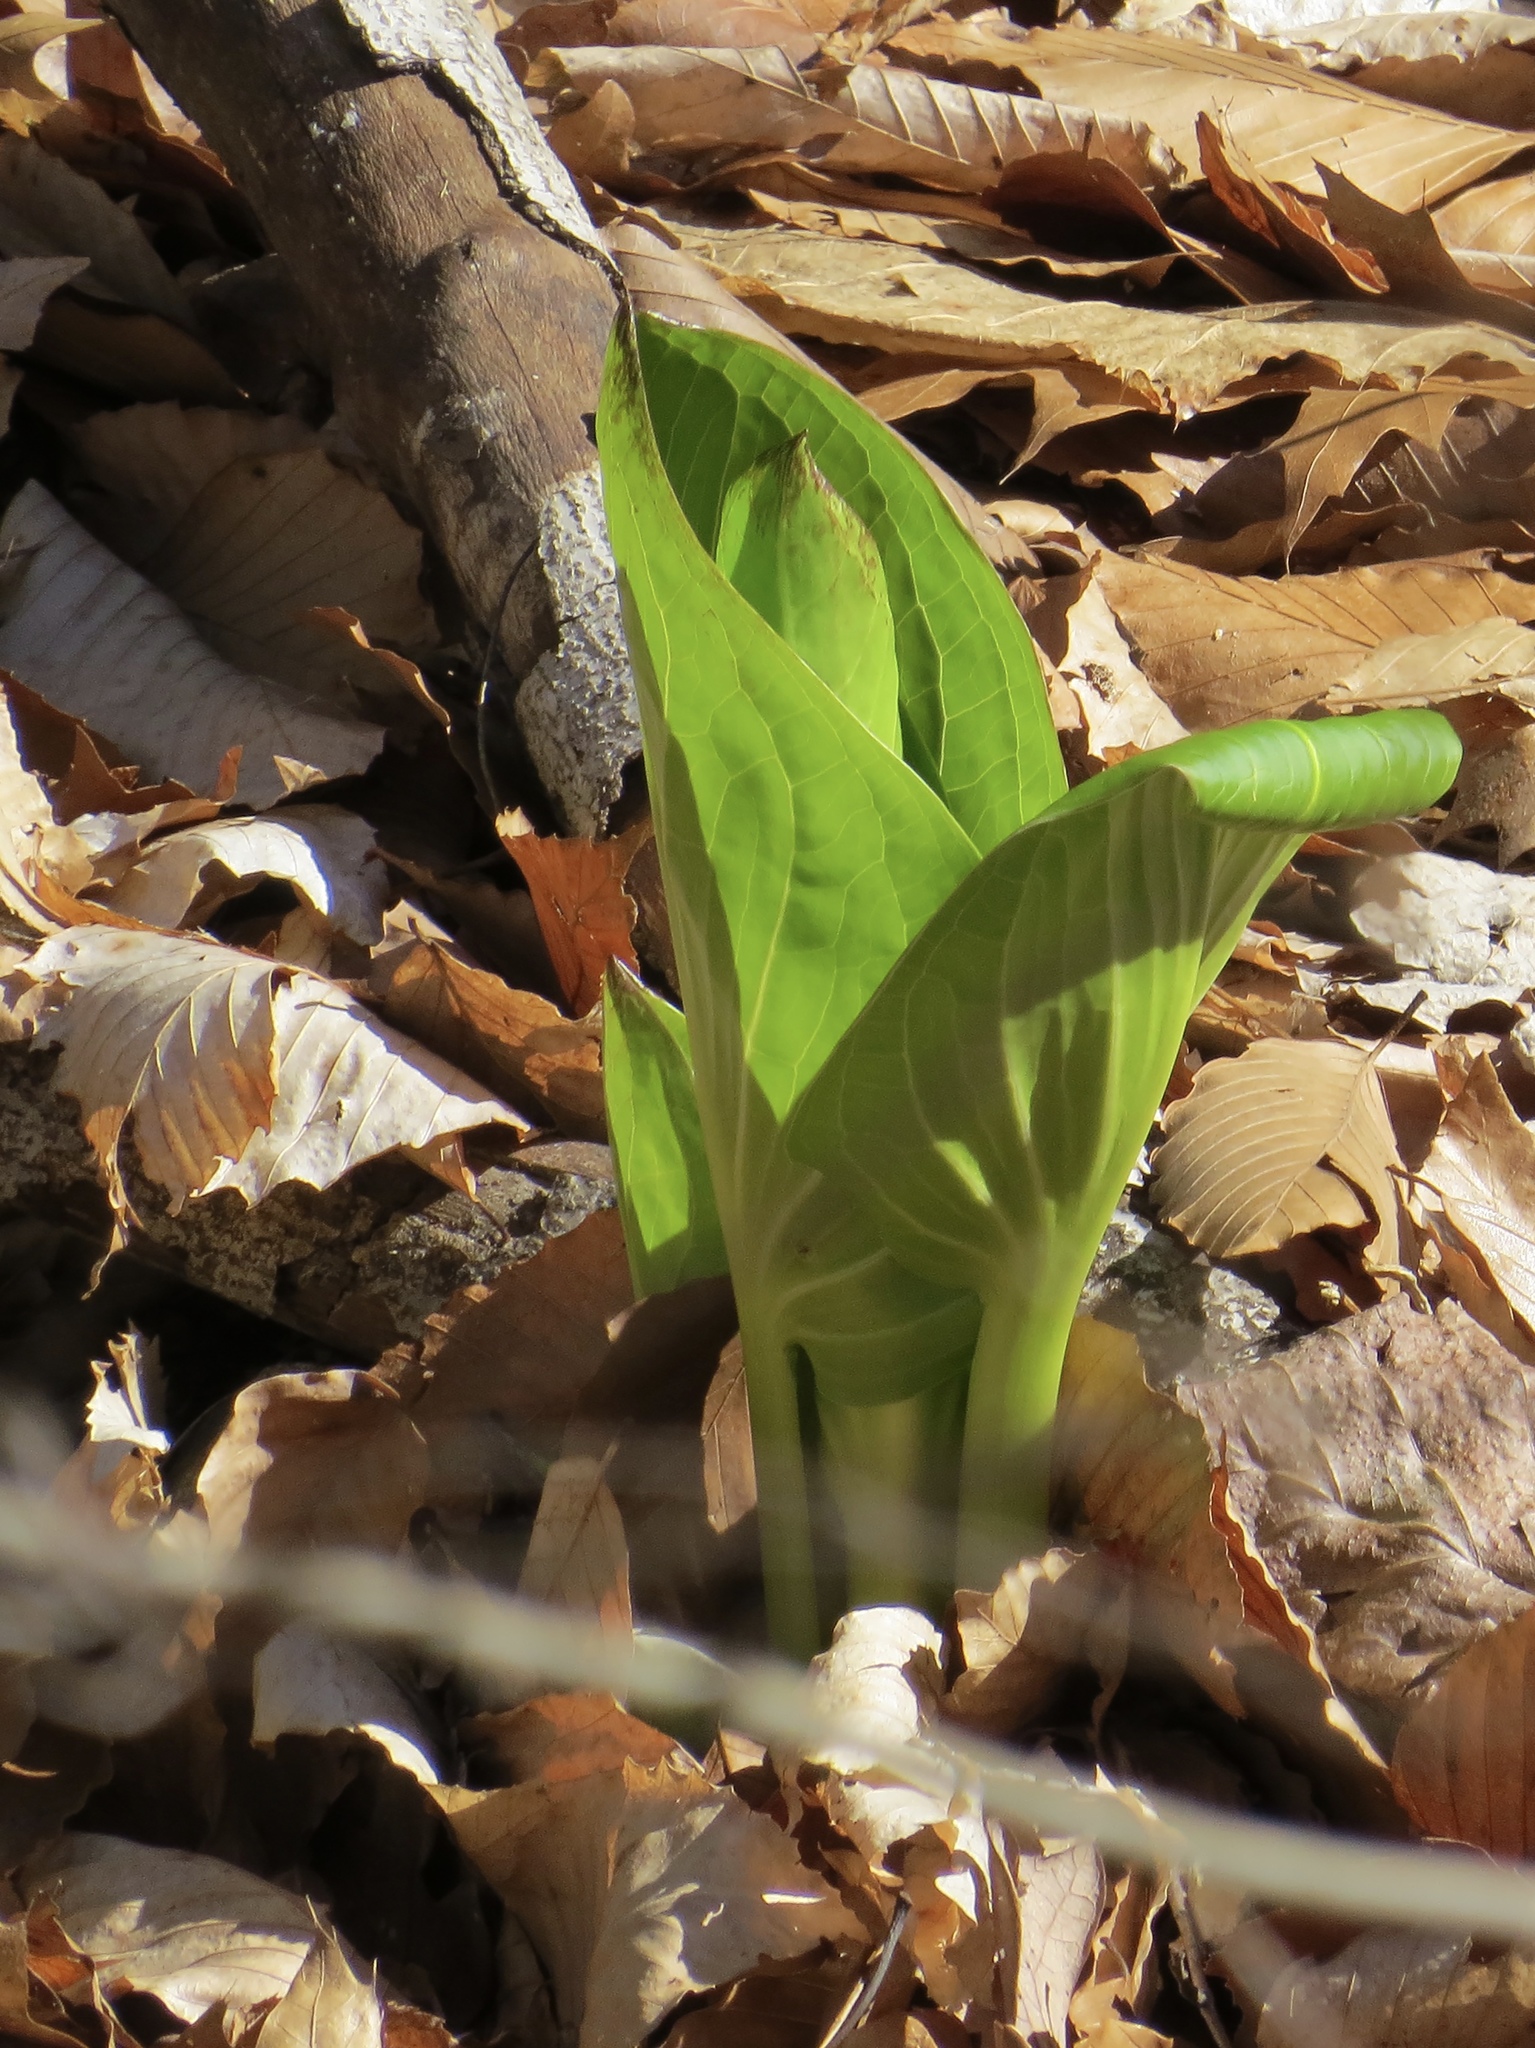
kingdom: Plantae
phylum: Tracheophyta
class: Liliopsida
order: Alismatales
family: Araceae
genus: Symplocarpus
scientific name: Symplocarpus foetidus
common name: Eastern skunk cabbage
